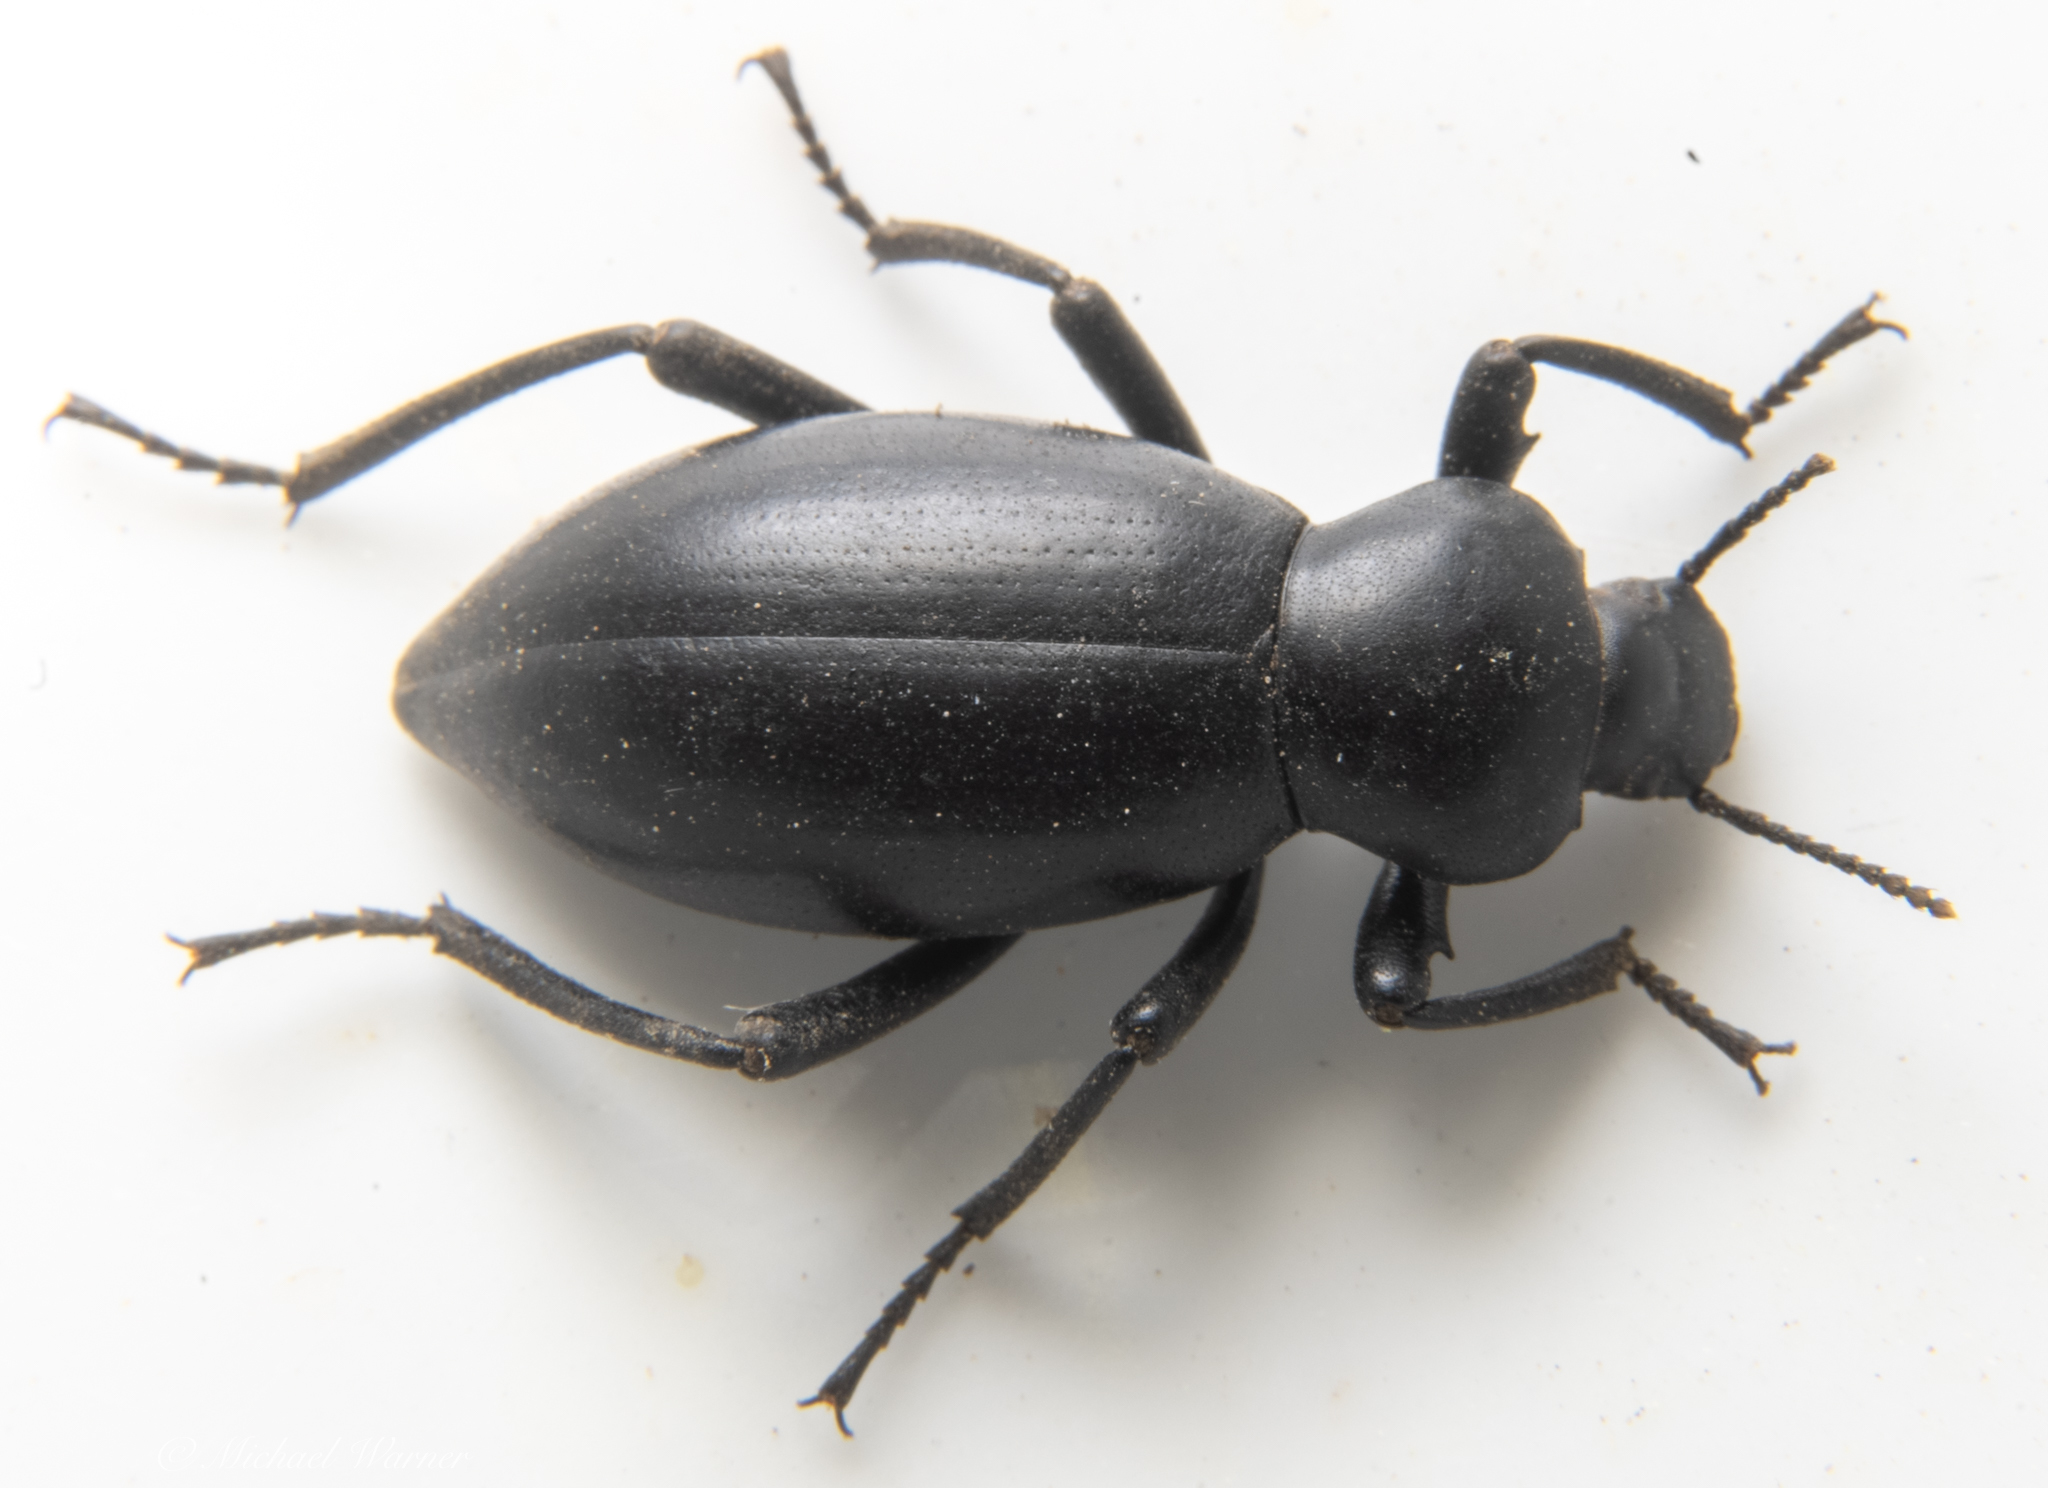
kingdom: Animalia
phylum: Arthropoda
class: Insecta
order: Coleoptera
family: Tenebrionidae
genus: Eleodes
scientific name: Eleodes dentipes
